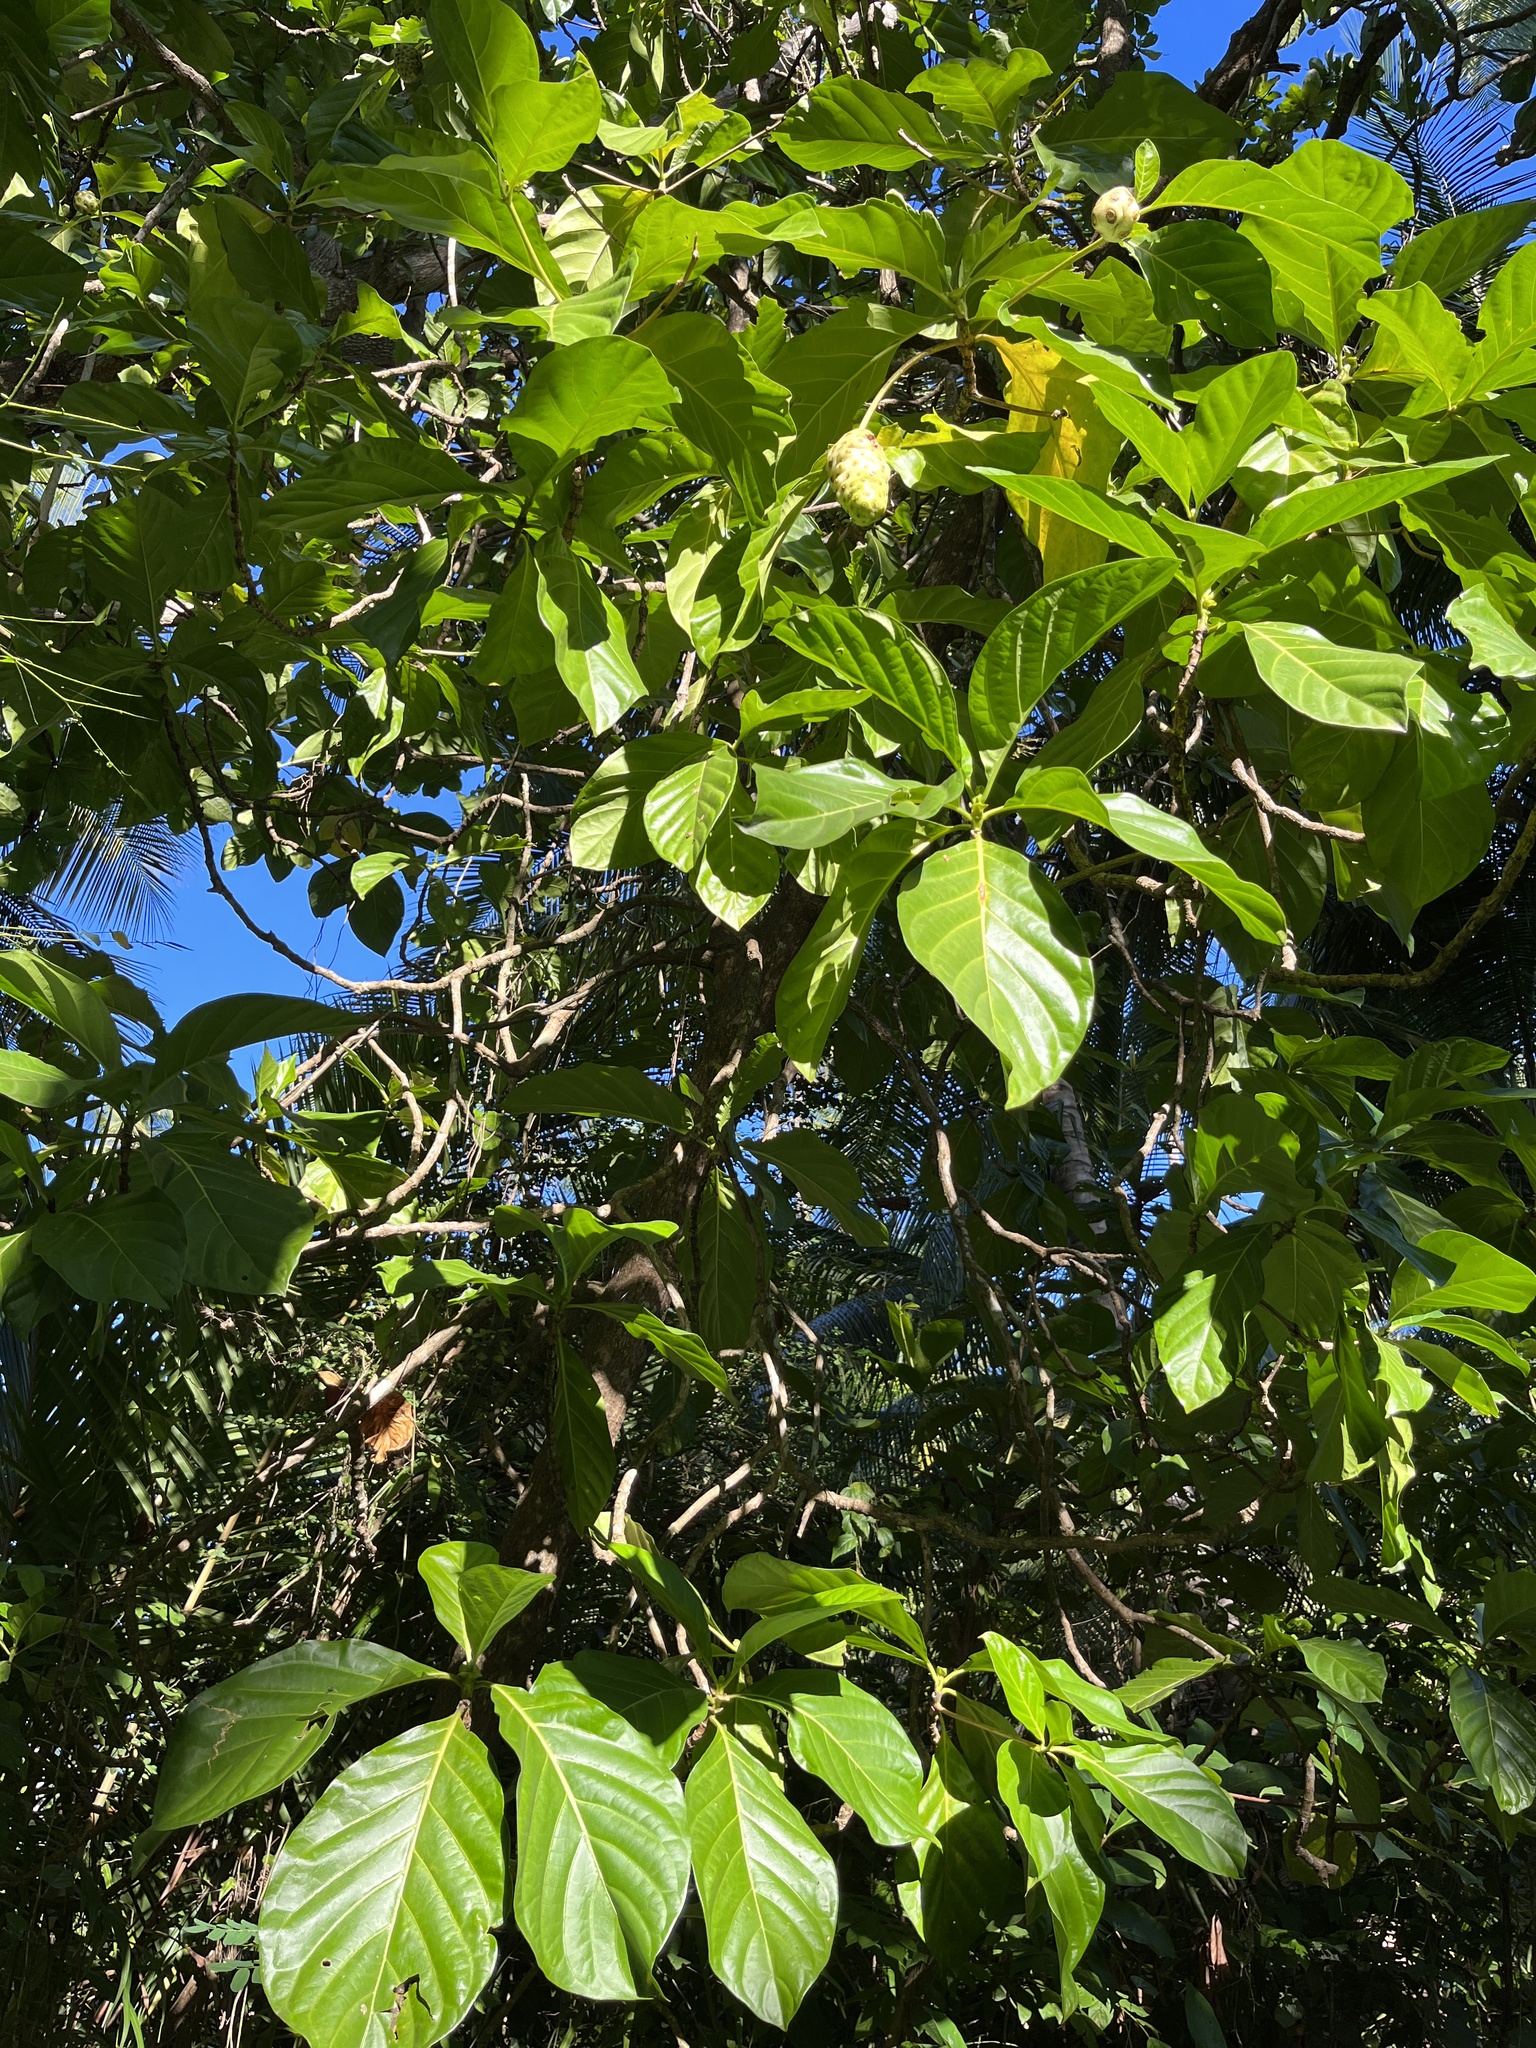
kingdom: Plantae
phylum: Tracheophyta
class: Magnoliopsida
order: Gentianales
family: Rubiaceae
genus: Morinda
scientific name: Morinda citrifolia
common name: Indian-mulberry
